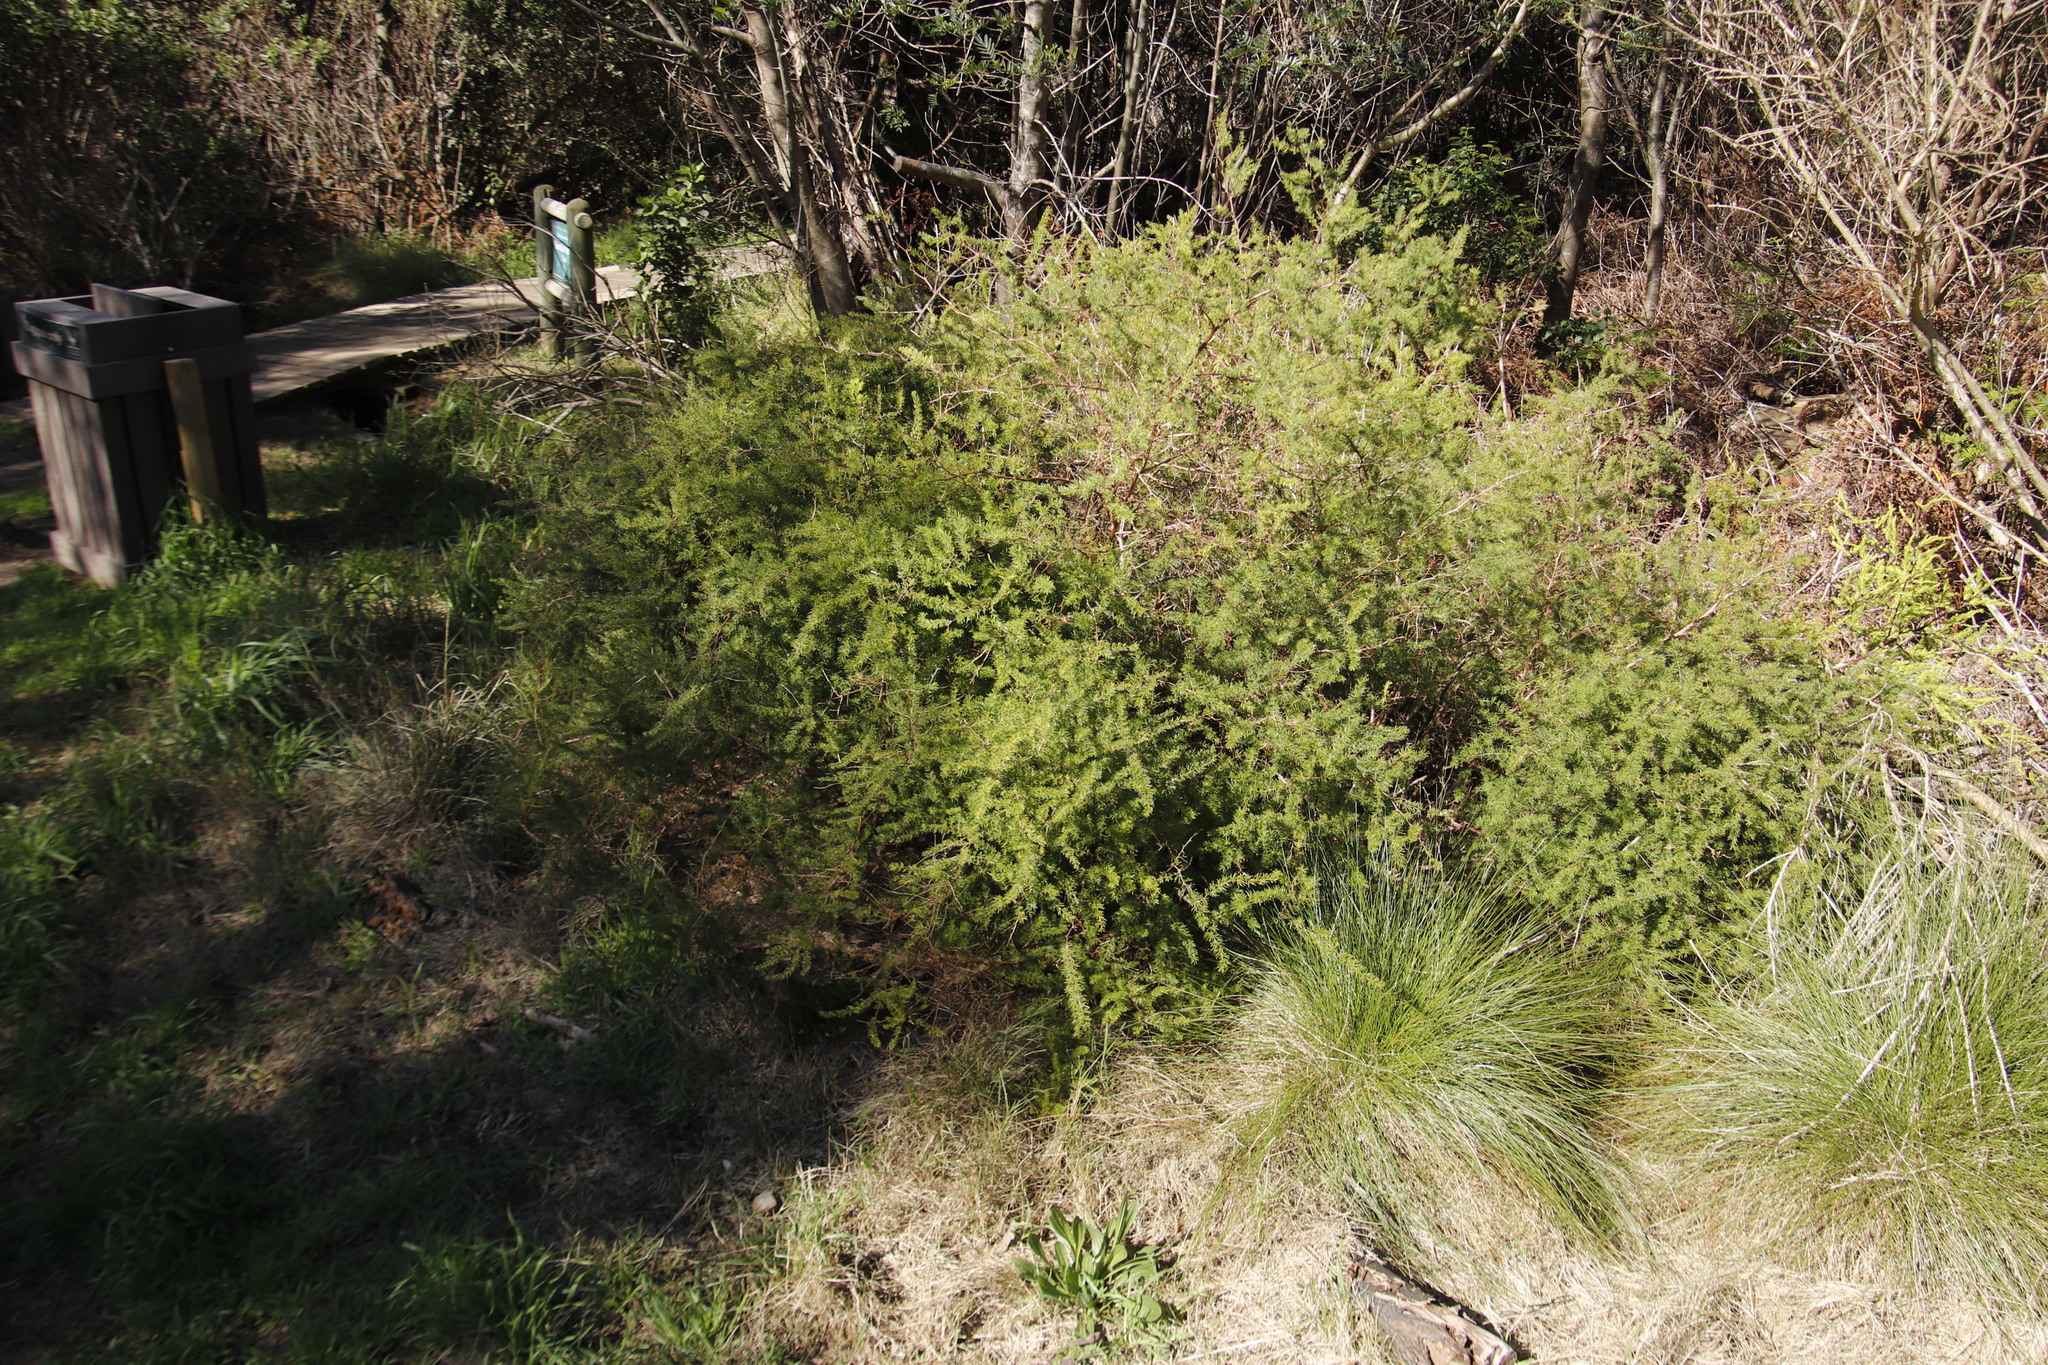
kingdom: Plantae
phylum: Tracheophyta
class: Liliopsida
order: Asparagales
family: Asparagaceae
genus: Asparagus
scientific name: Asparagus rubicundus
